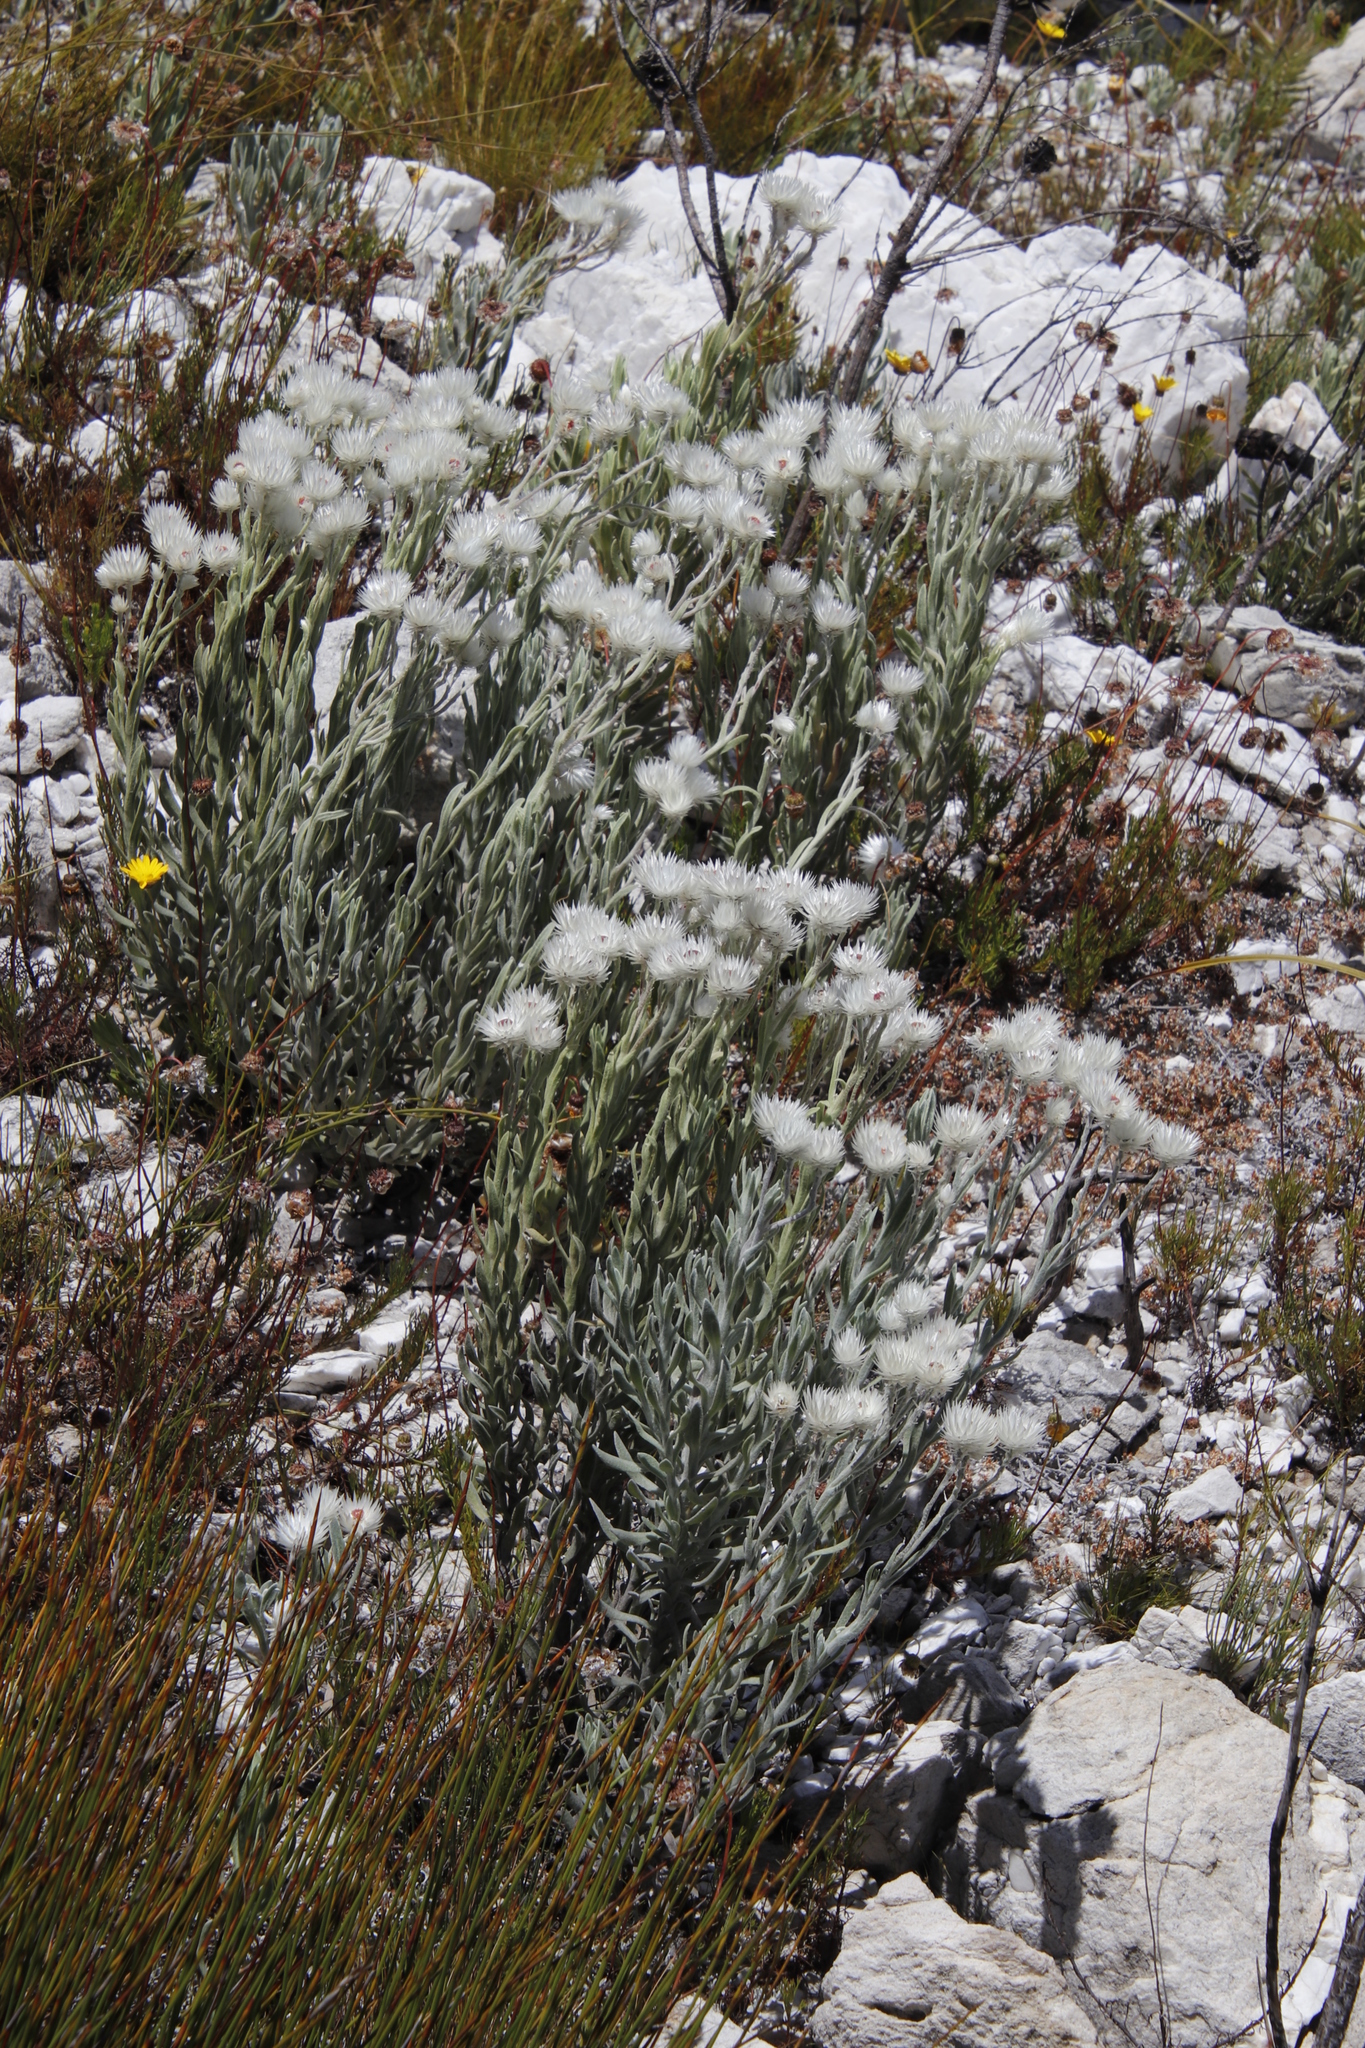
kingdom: Plantae
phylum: Tracheophyta
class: Magnoliopsida
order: Asterales
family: Asteraceae
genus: Syncarpha
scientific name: Syncarpha vestita
